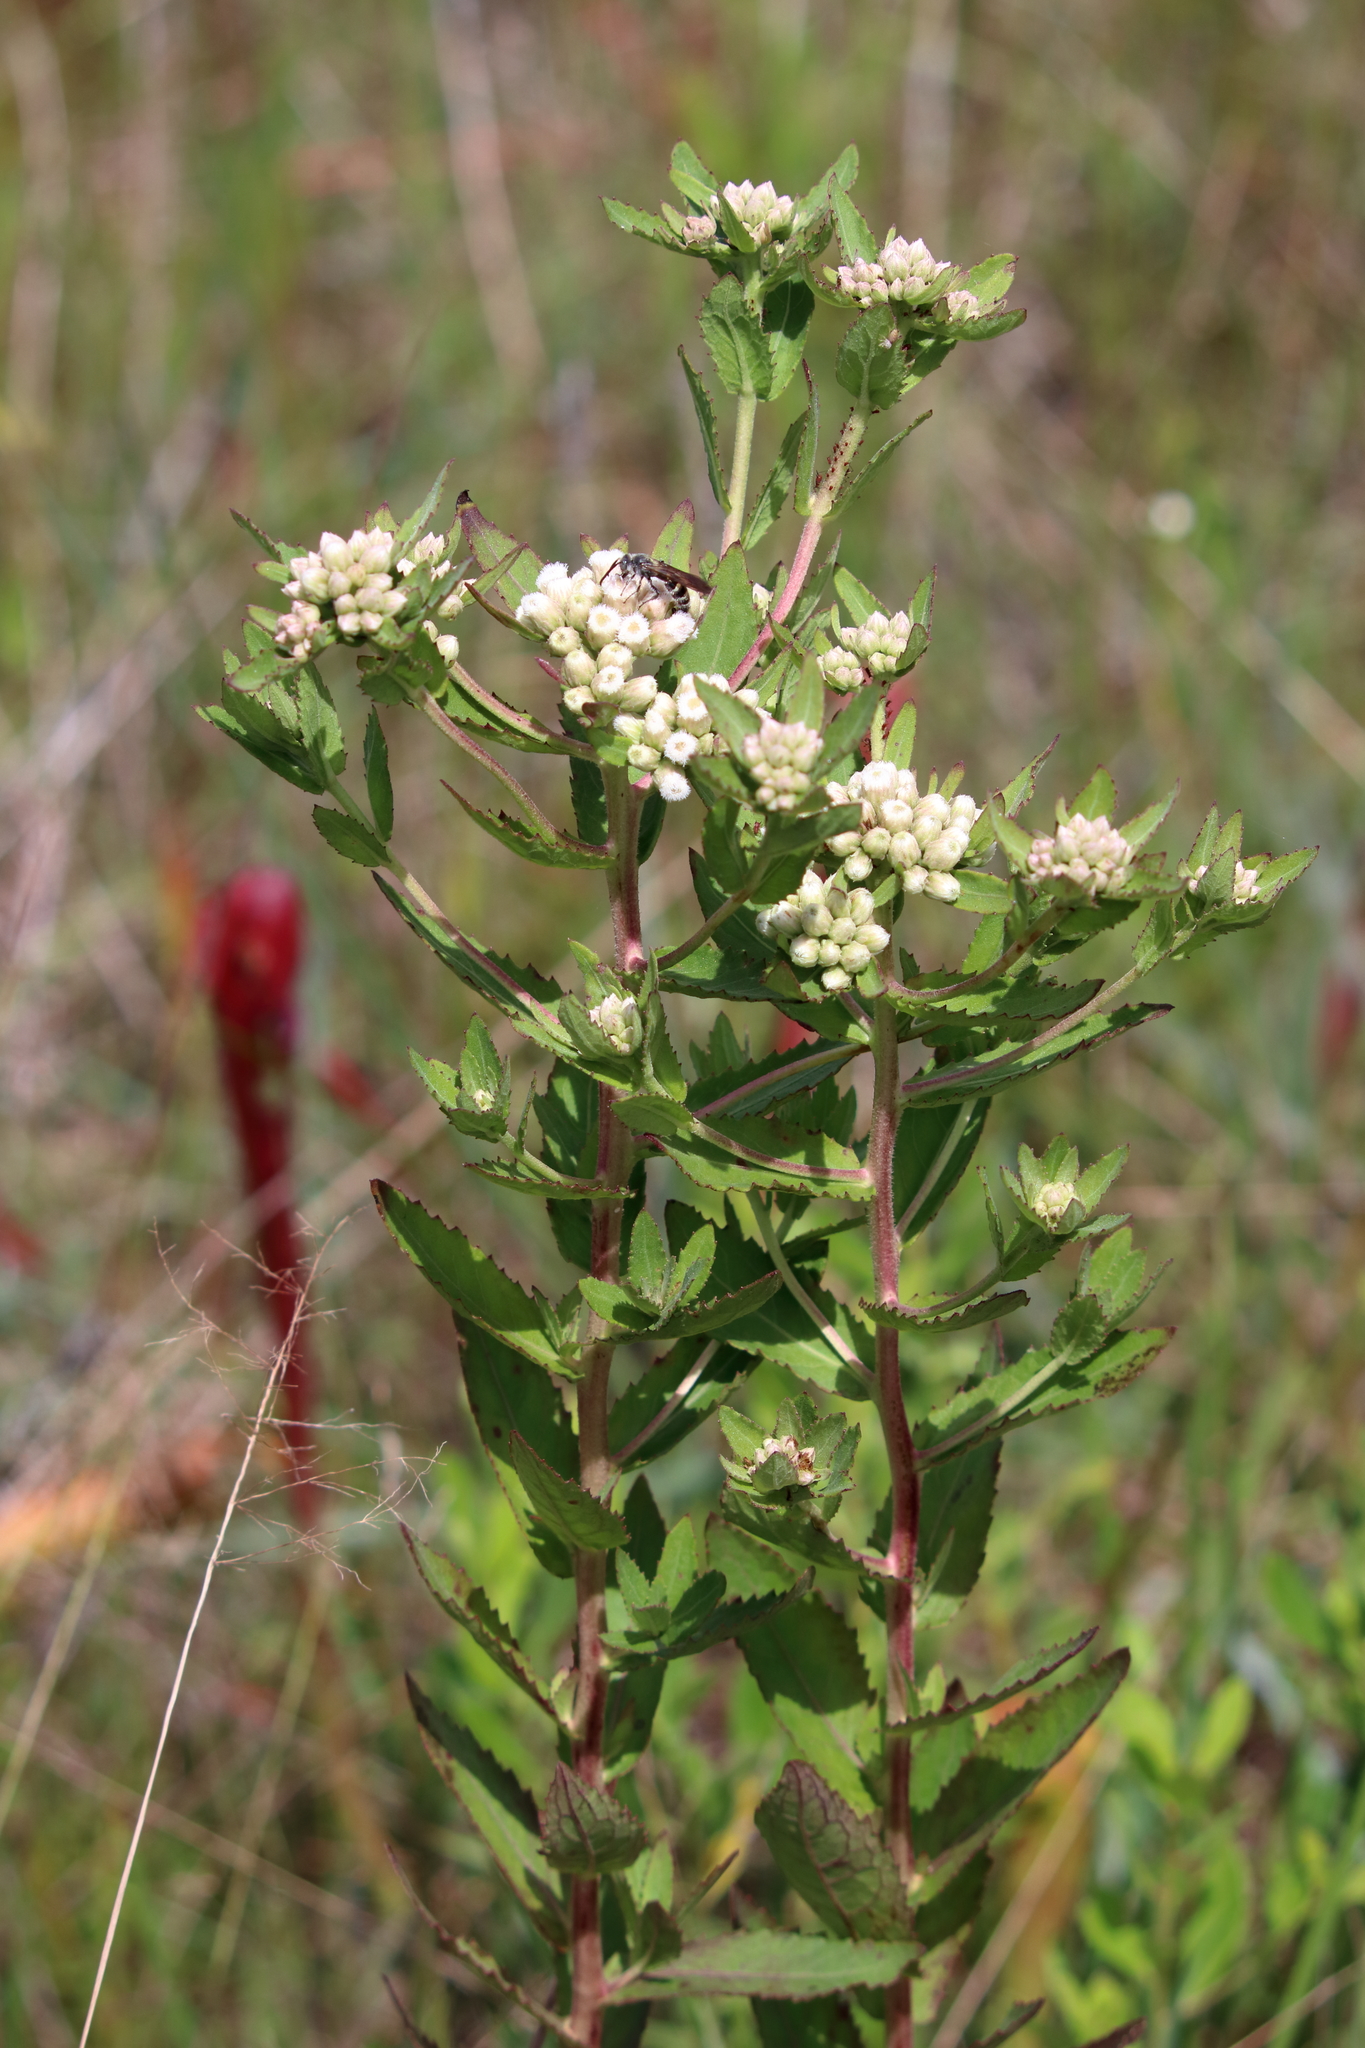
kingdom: Plantae
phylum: Tracheophyta
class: Magnoliopsida
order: Asterales
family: Asteraceae
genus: Pluchea
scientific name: Pluchea foetida
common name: Stinking camphorweed
